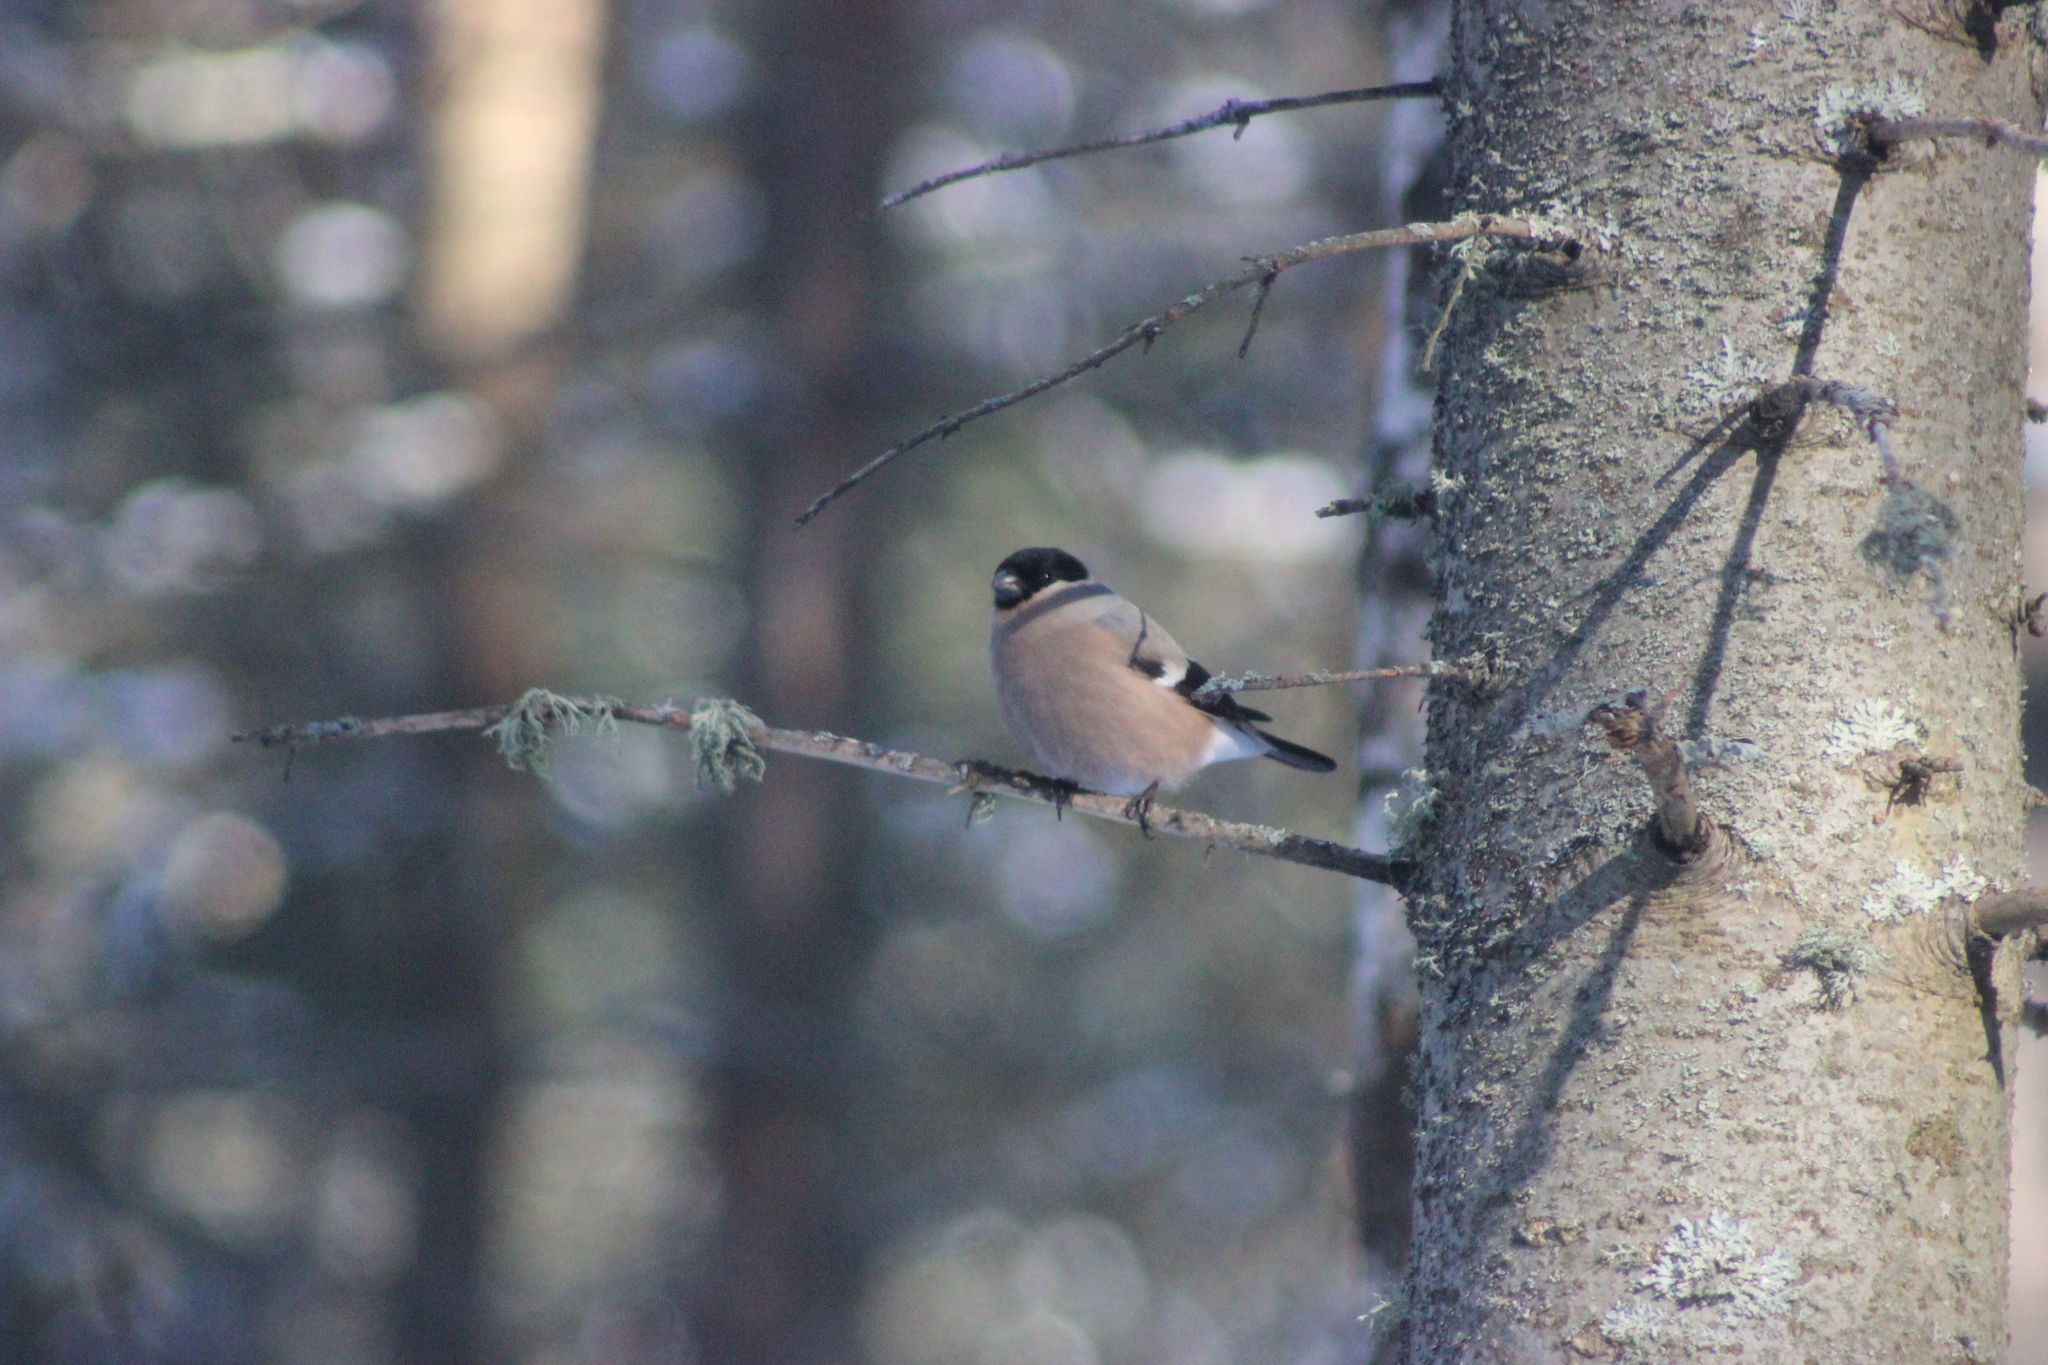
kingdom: Animalia
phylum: Chordata
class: Aves
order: Passeriformes
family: Fringillidae
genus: Pyrrhula
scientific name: Pyrrhula pyrrhula
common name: Eurasian bullfinch
